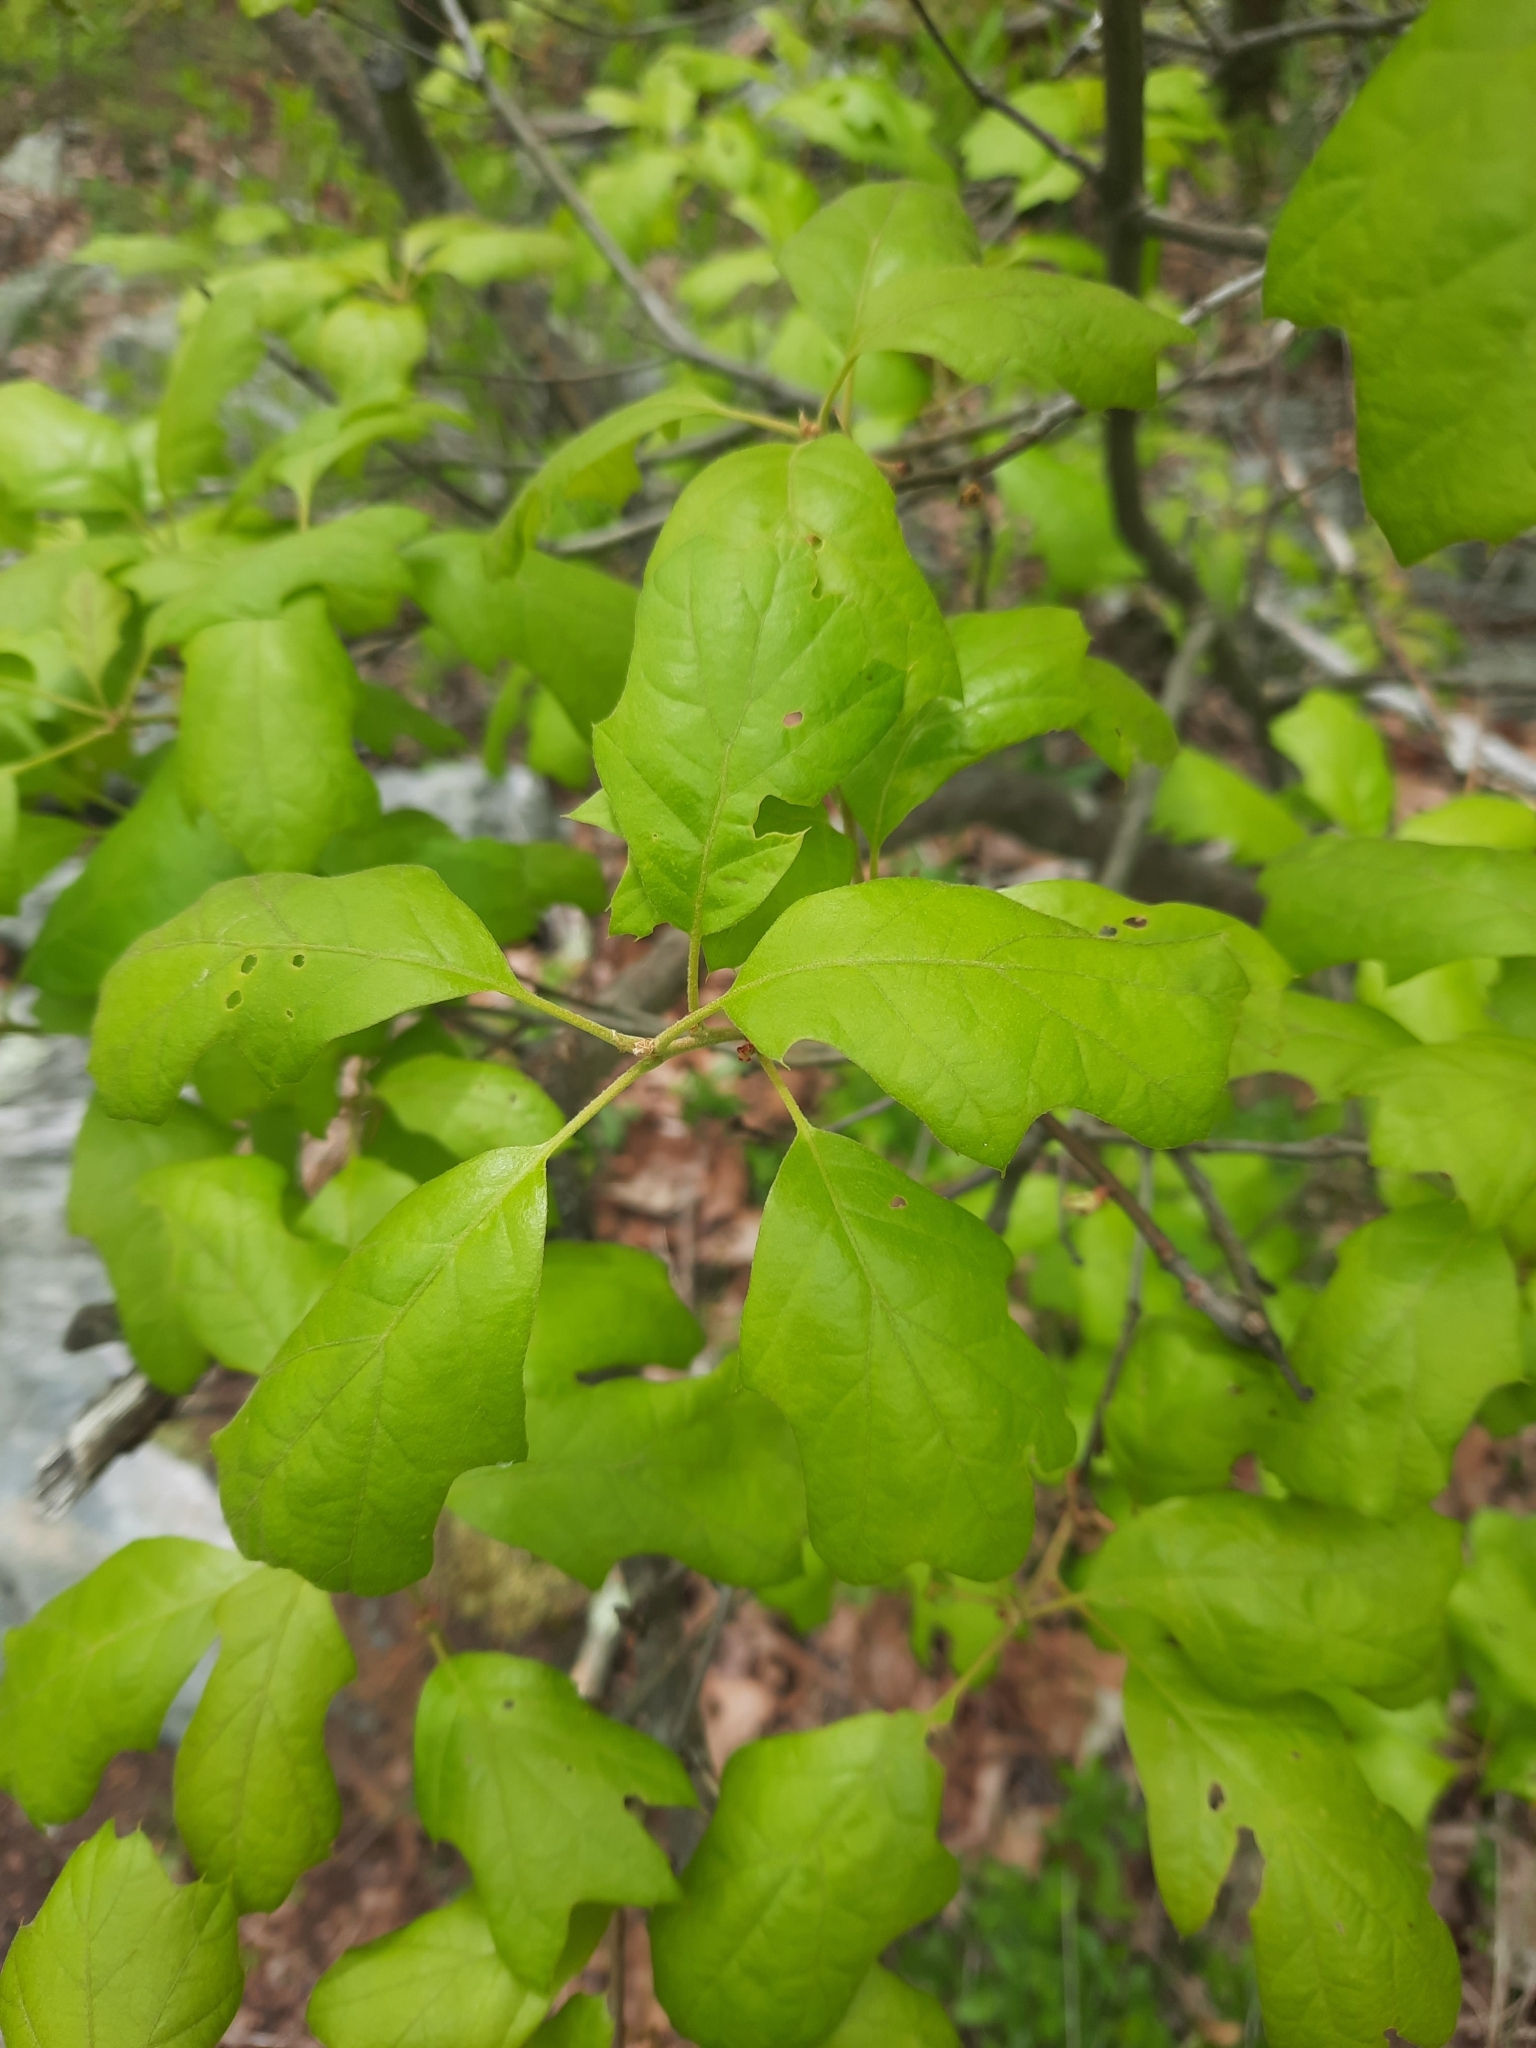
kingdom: Plantae
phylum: Tracheophyta
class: Magnoliopsida
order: Fagales
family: Fagaceae
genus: Quercus
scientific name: Quercus ilicifolia
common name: Bear oak
